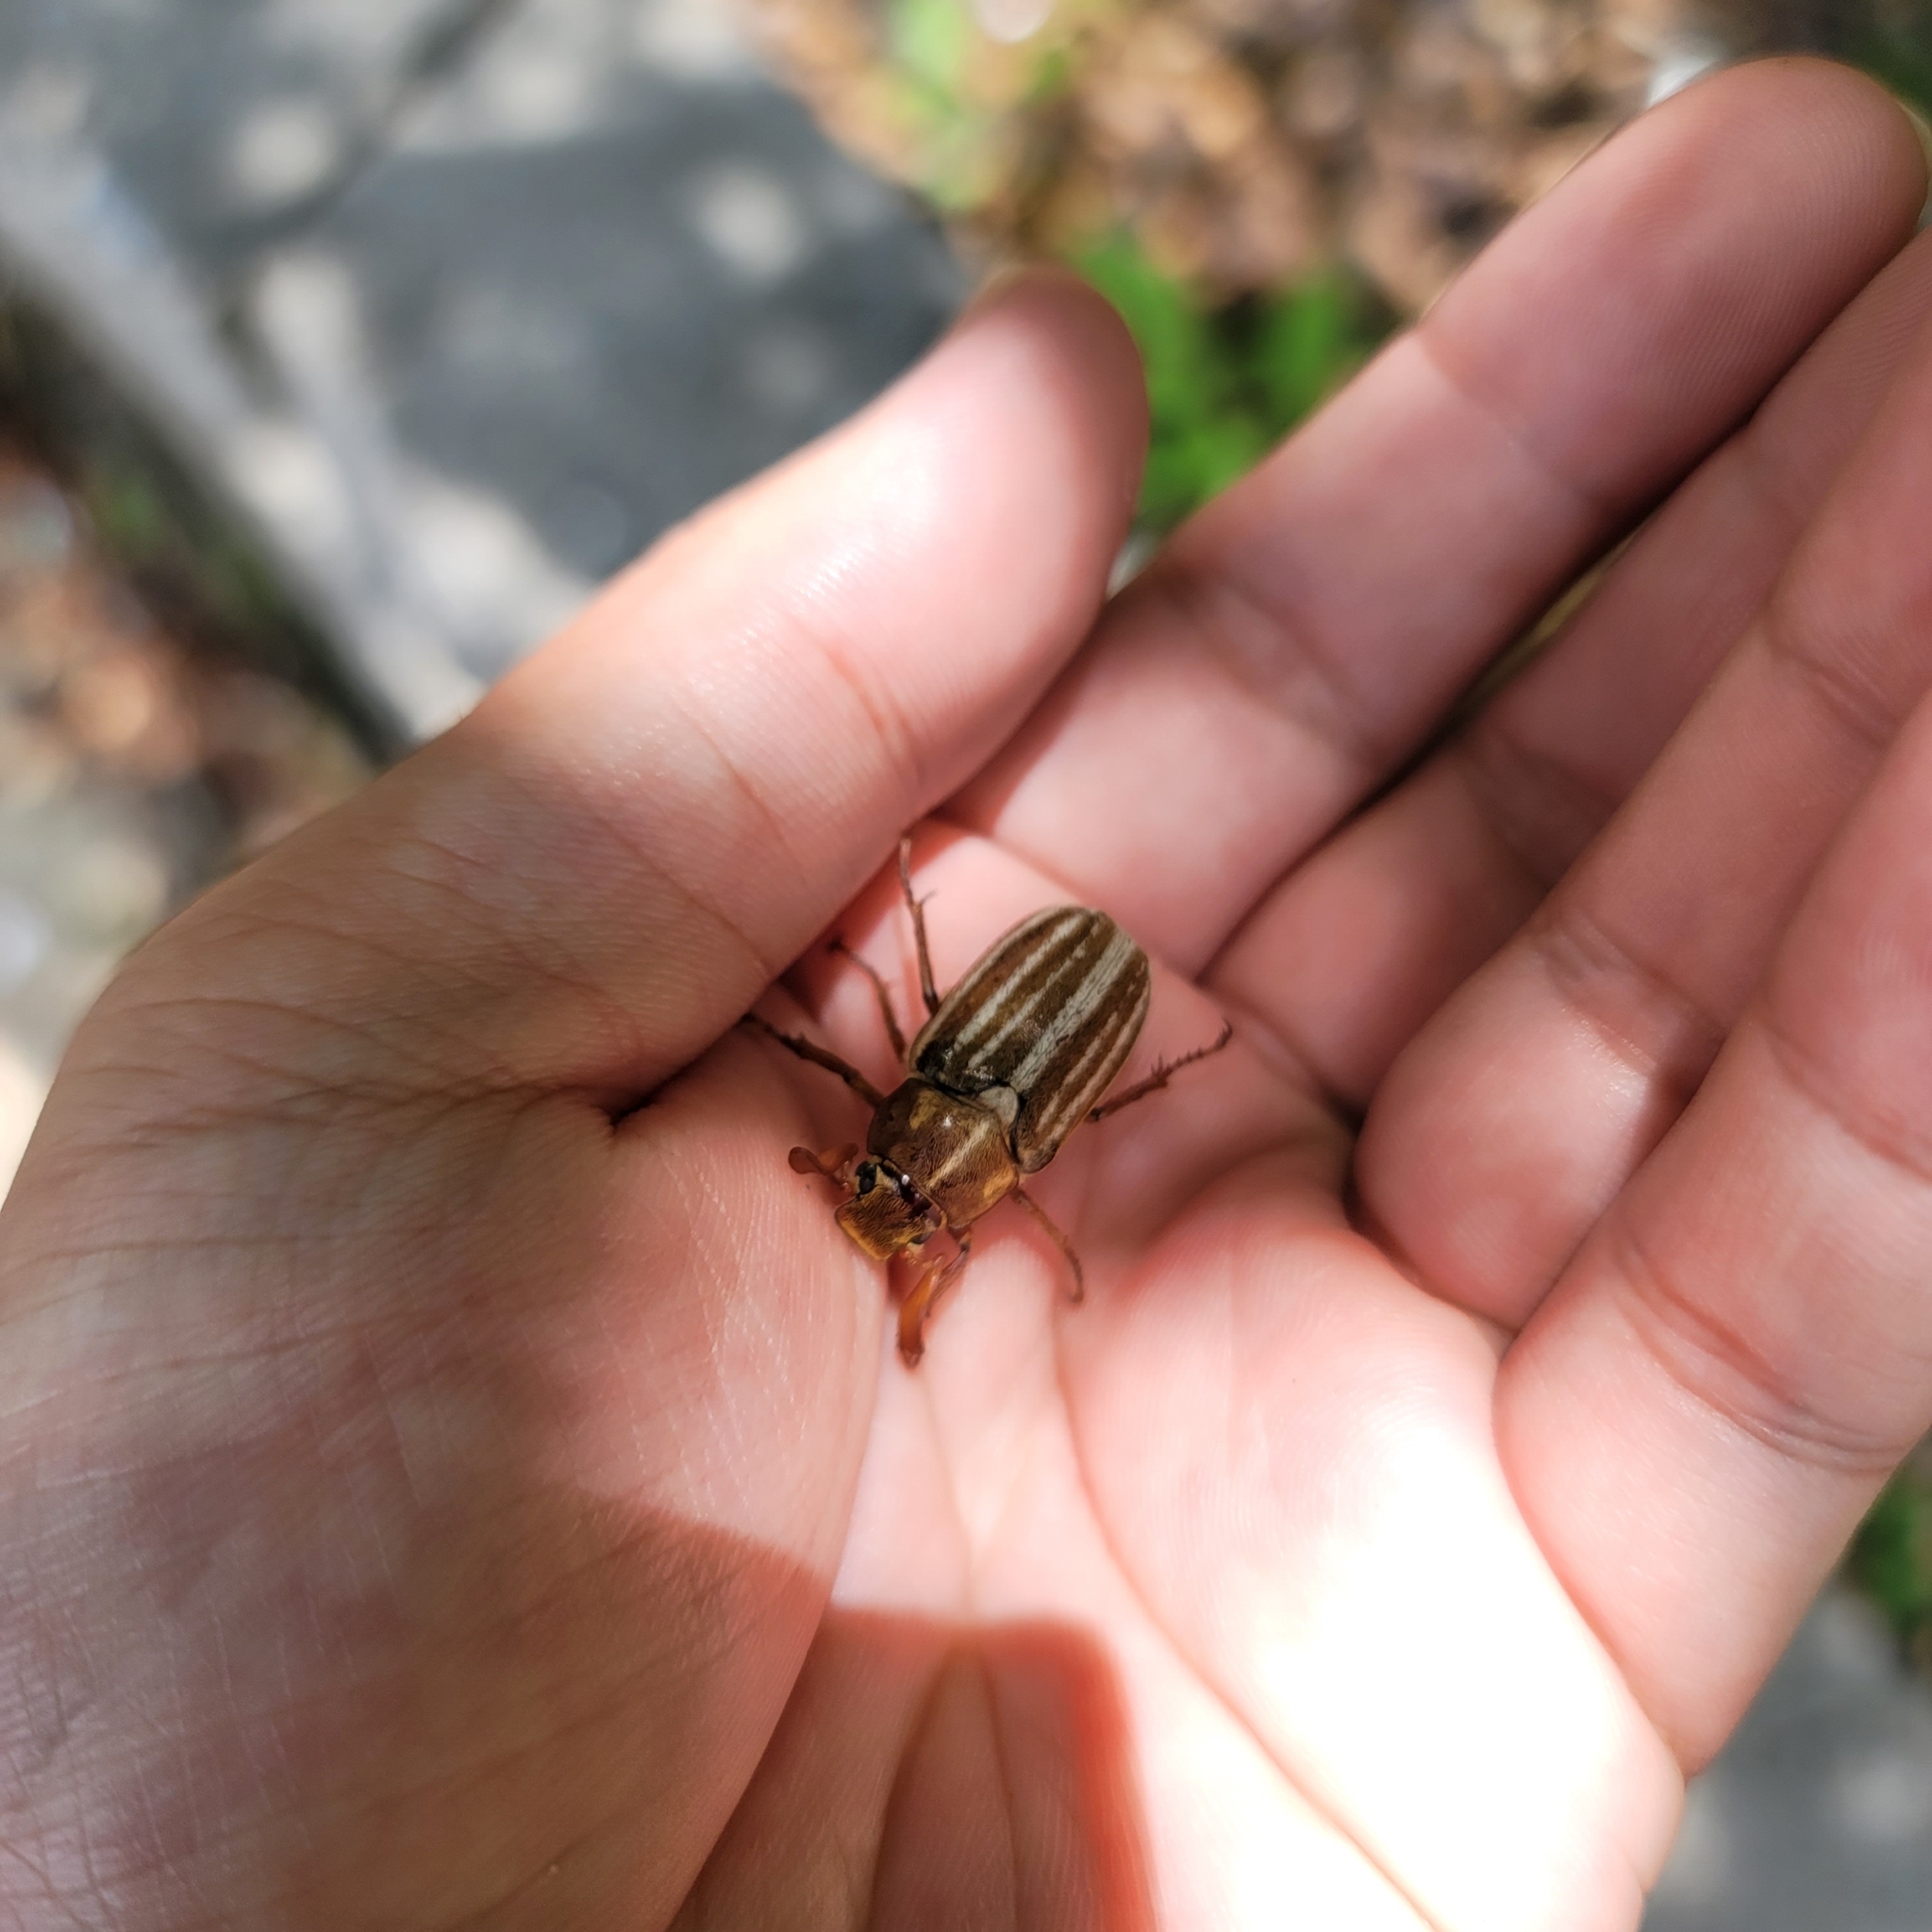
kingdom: Animalia
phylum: Arthropoda
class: Insecta
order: Coleoptera
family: Scarabaeidae
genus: Polyphylla
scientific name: Polyphylla occidentalis
